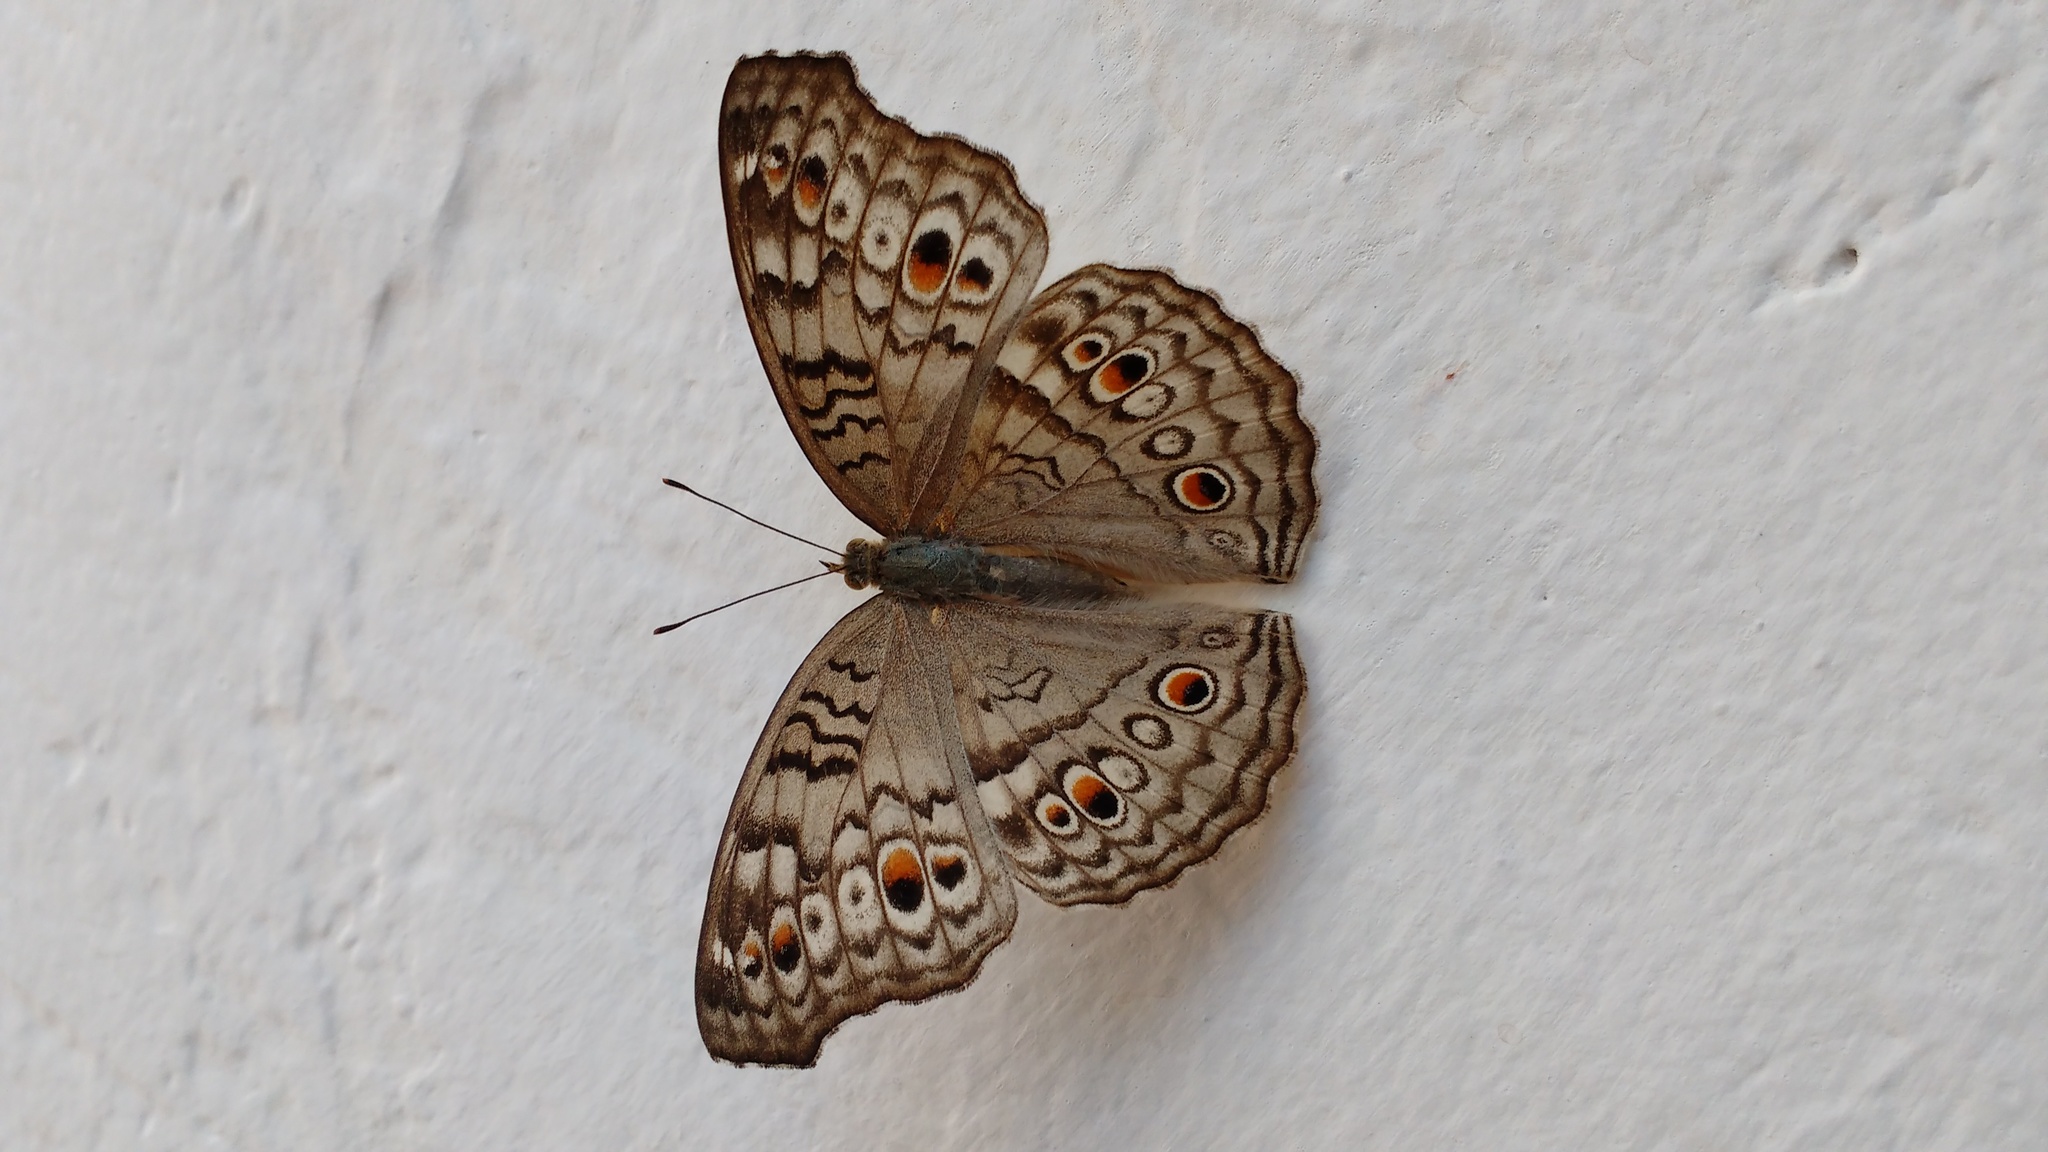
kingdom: Animalia
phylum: Arthropoda
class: Insecta
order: Lepidoptera
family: Nymphalidae
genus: Junonia
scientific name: Junonia atlites
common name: Grey pansy
